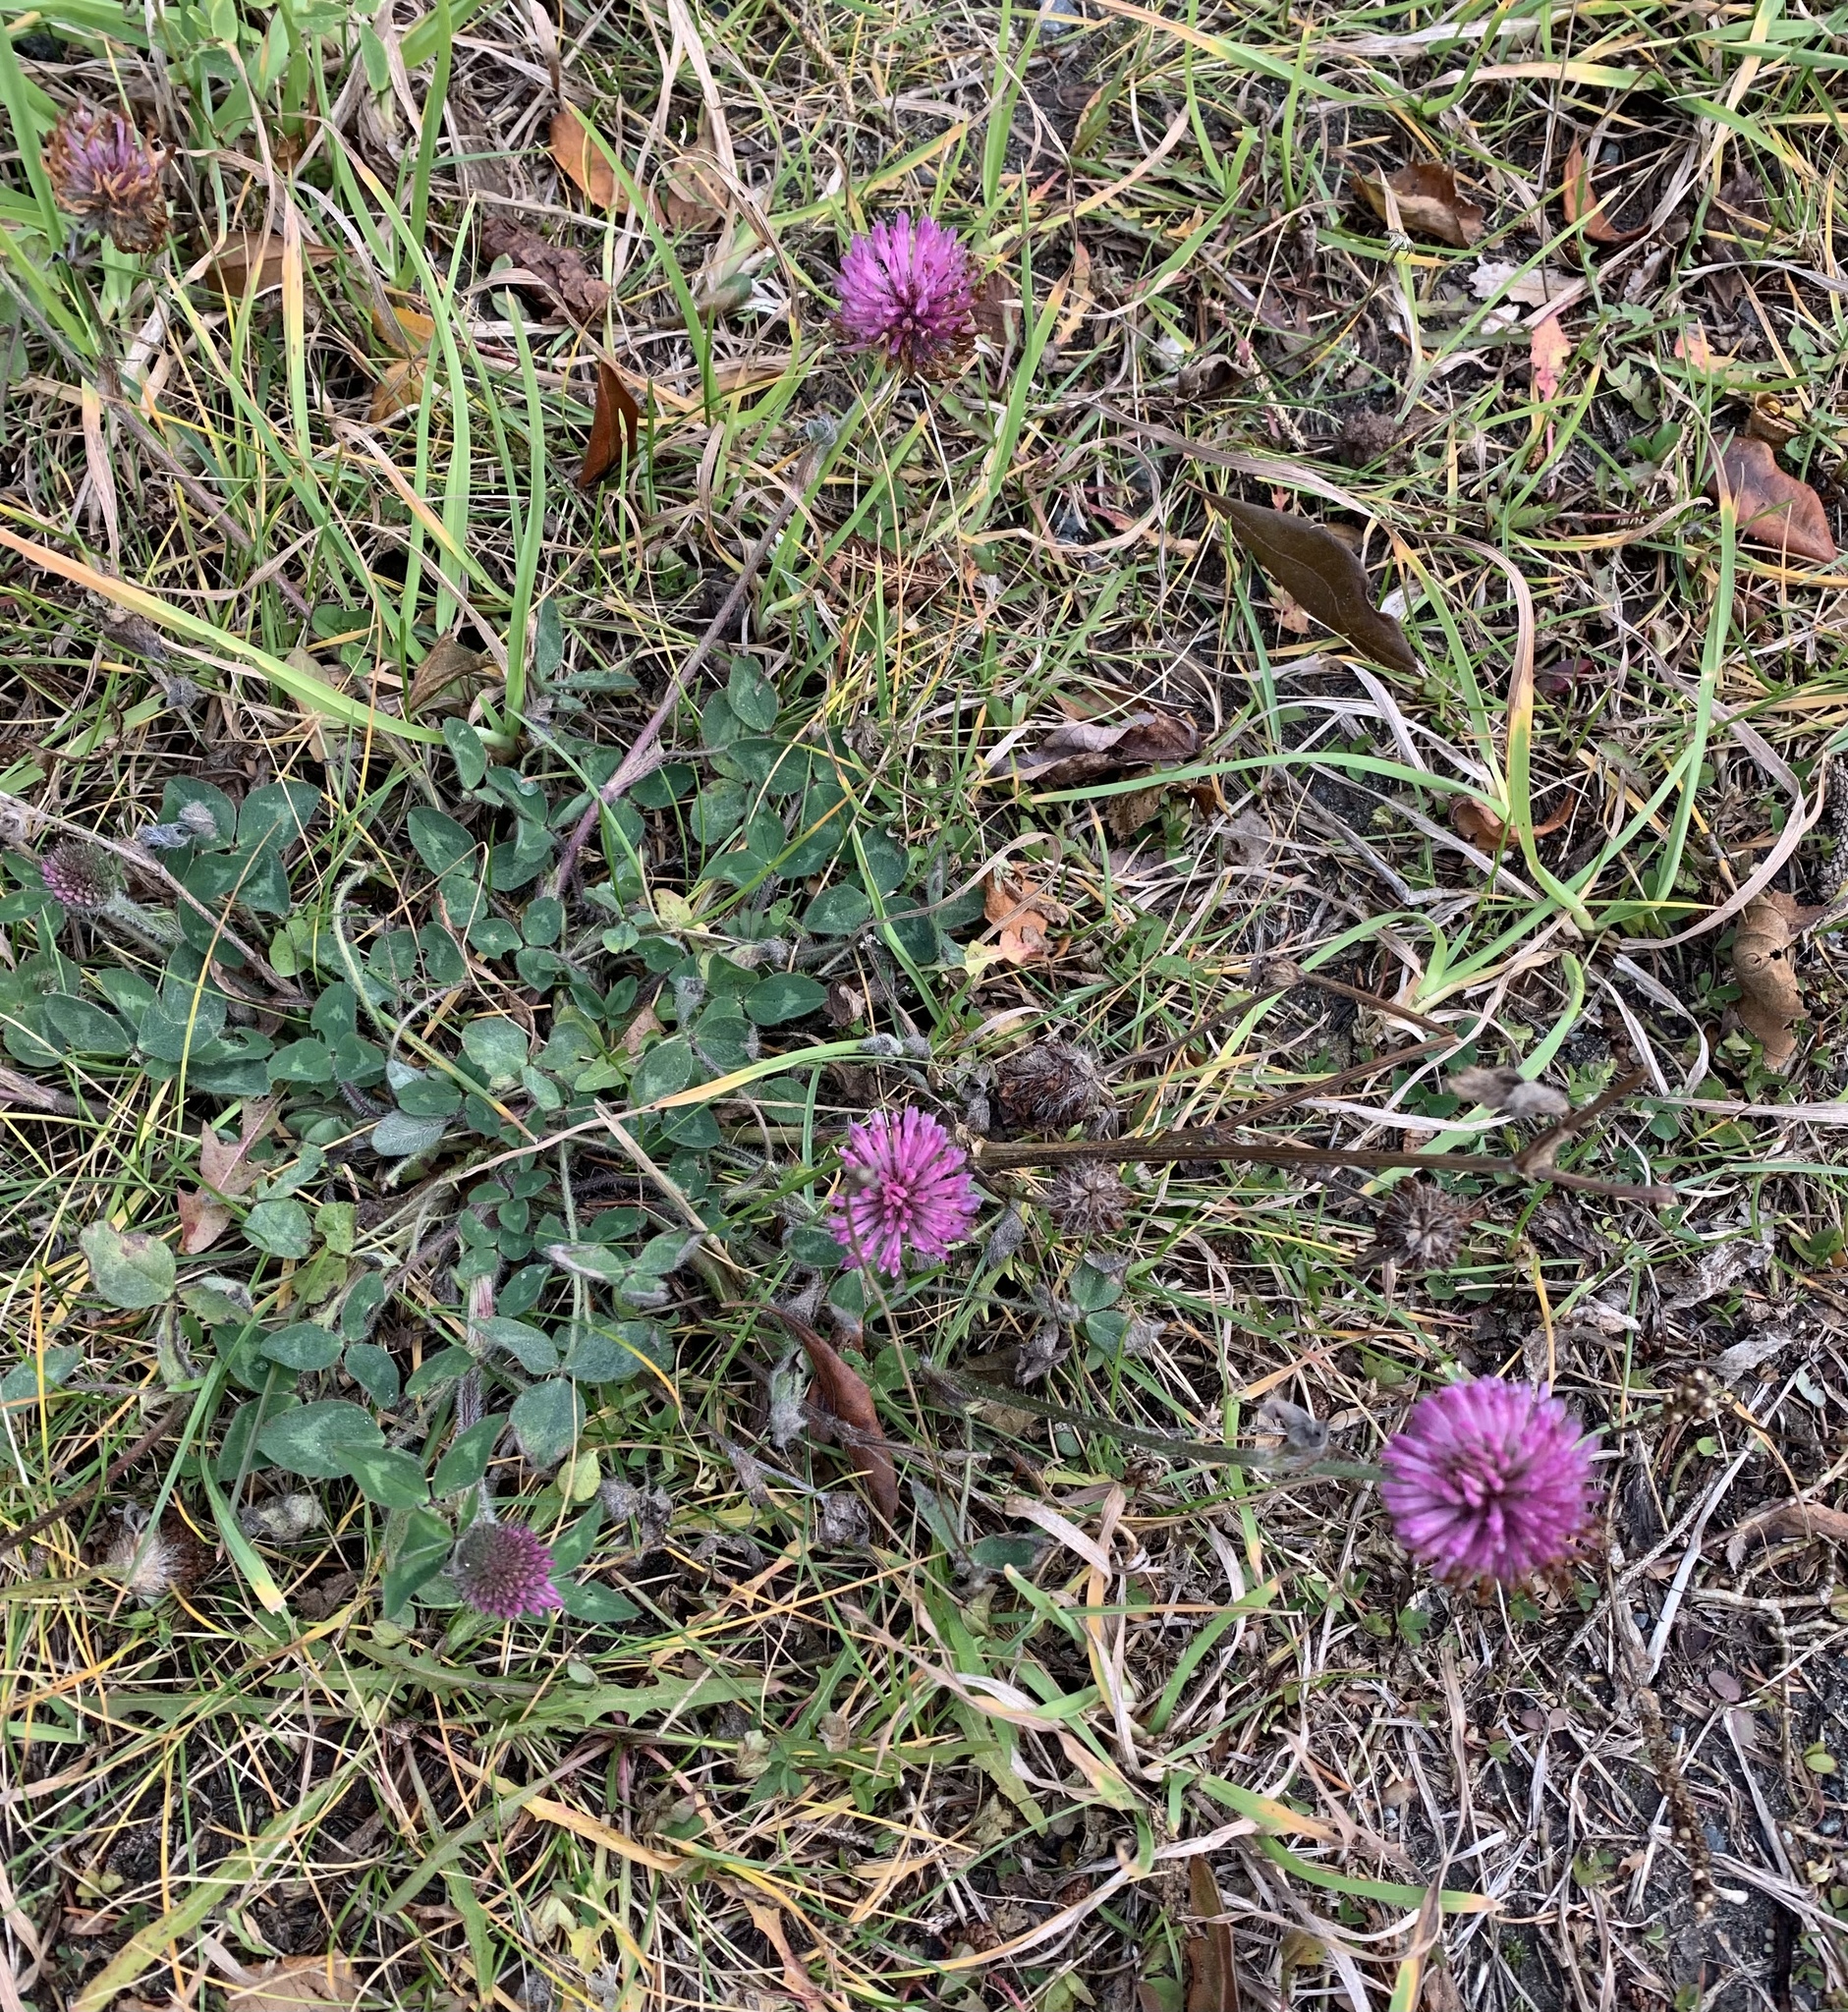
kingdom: Plantae
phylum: Tracheophyta
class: Magnoliopsida
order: Fabales
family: Fabaceae
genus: Trifolium
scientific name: Trifolium pratense
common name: Red clover
